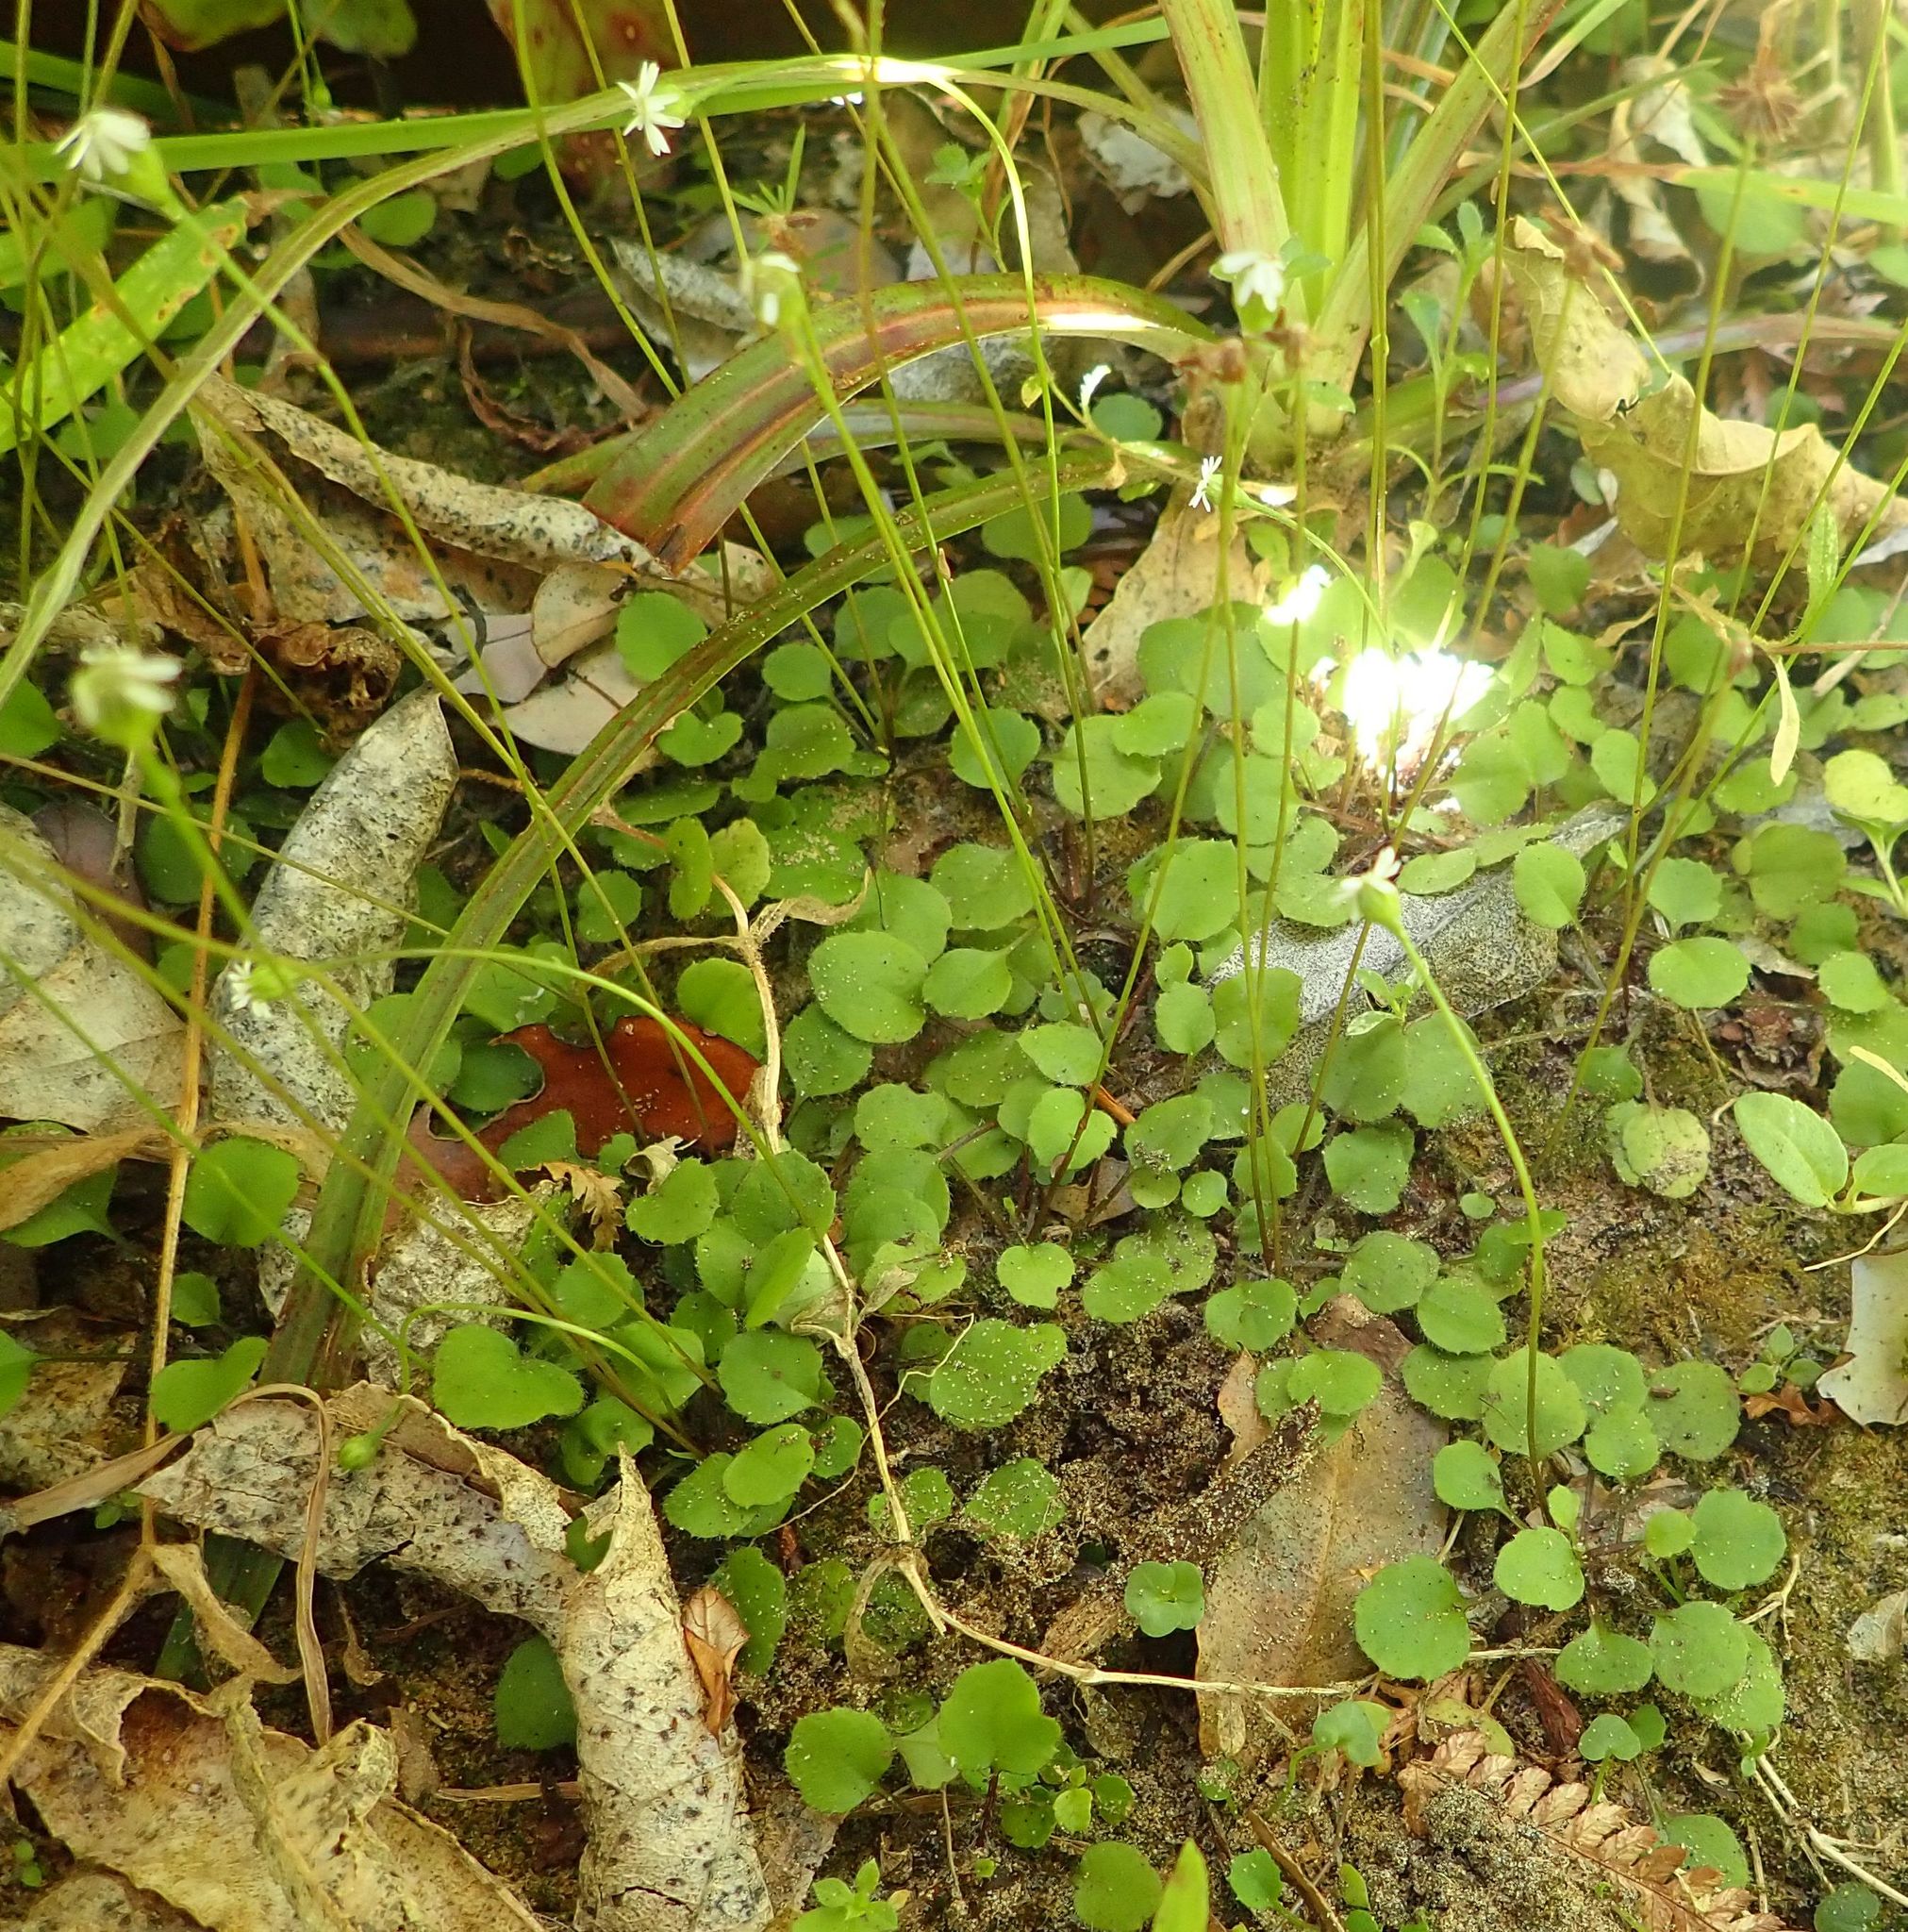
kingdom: Plantae
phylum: Tracheophyta
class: Magnoliopsida
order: Asterales
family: Asteraceae
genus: Lagenophora
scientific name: Lagenophora strangulata
